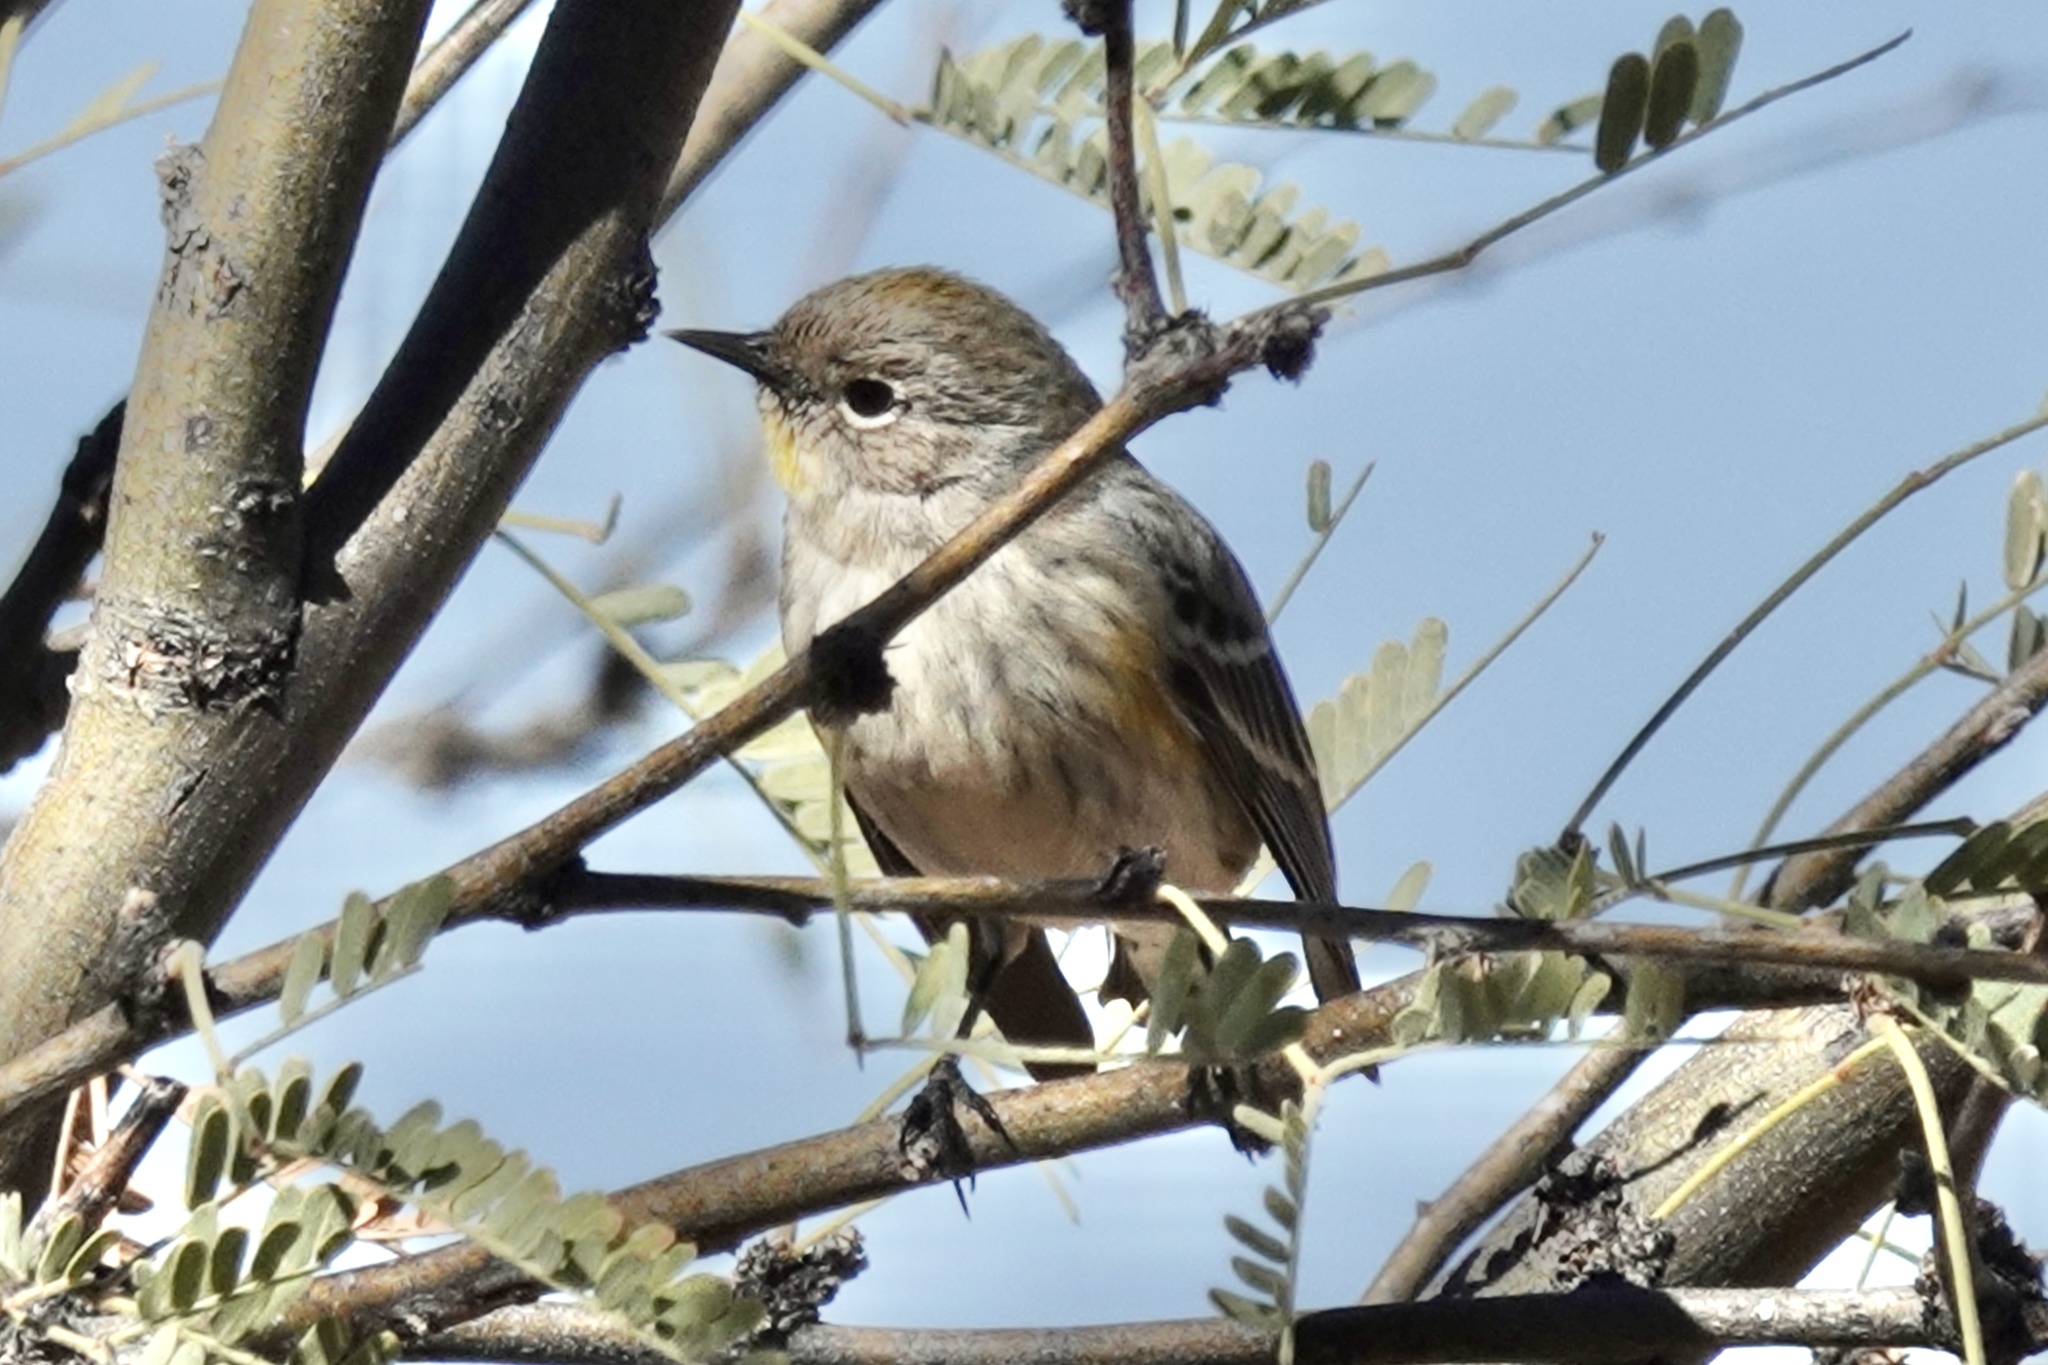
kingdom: Animalia
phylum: Chordata
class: Aves
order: Passeriformes
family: Parulidae
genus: Setophaga
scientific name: Setophaga auduboni
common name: Audubon's warbler
